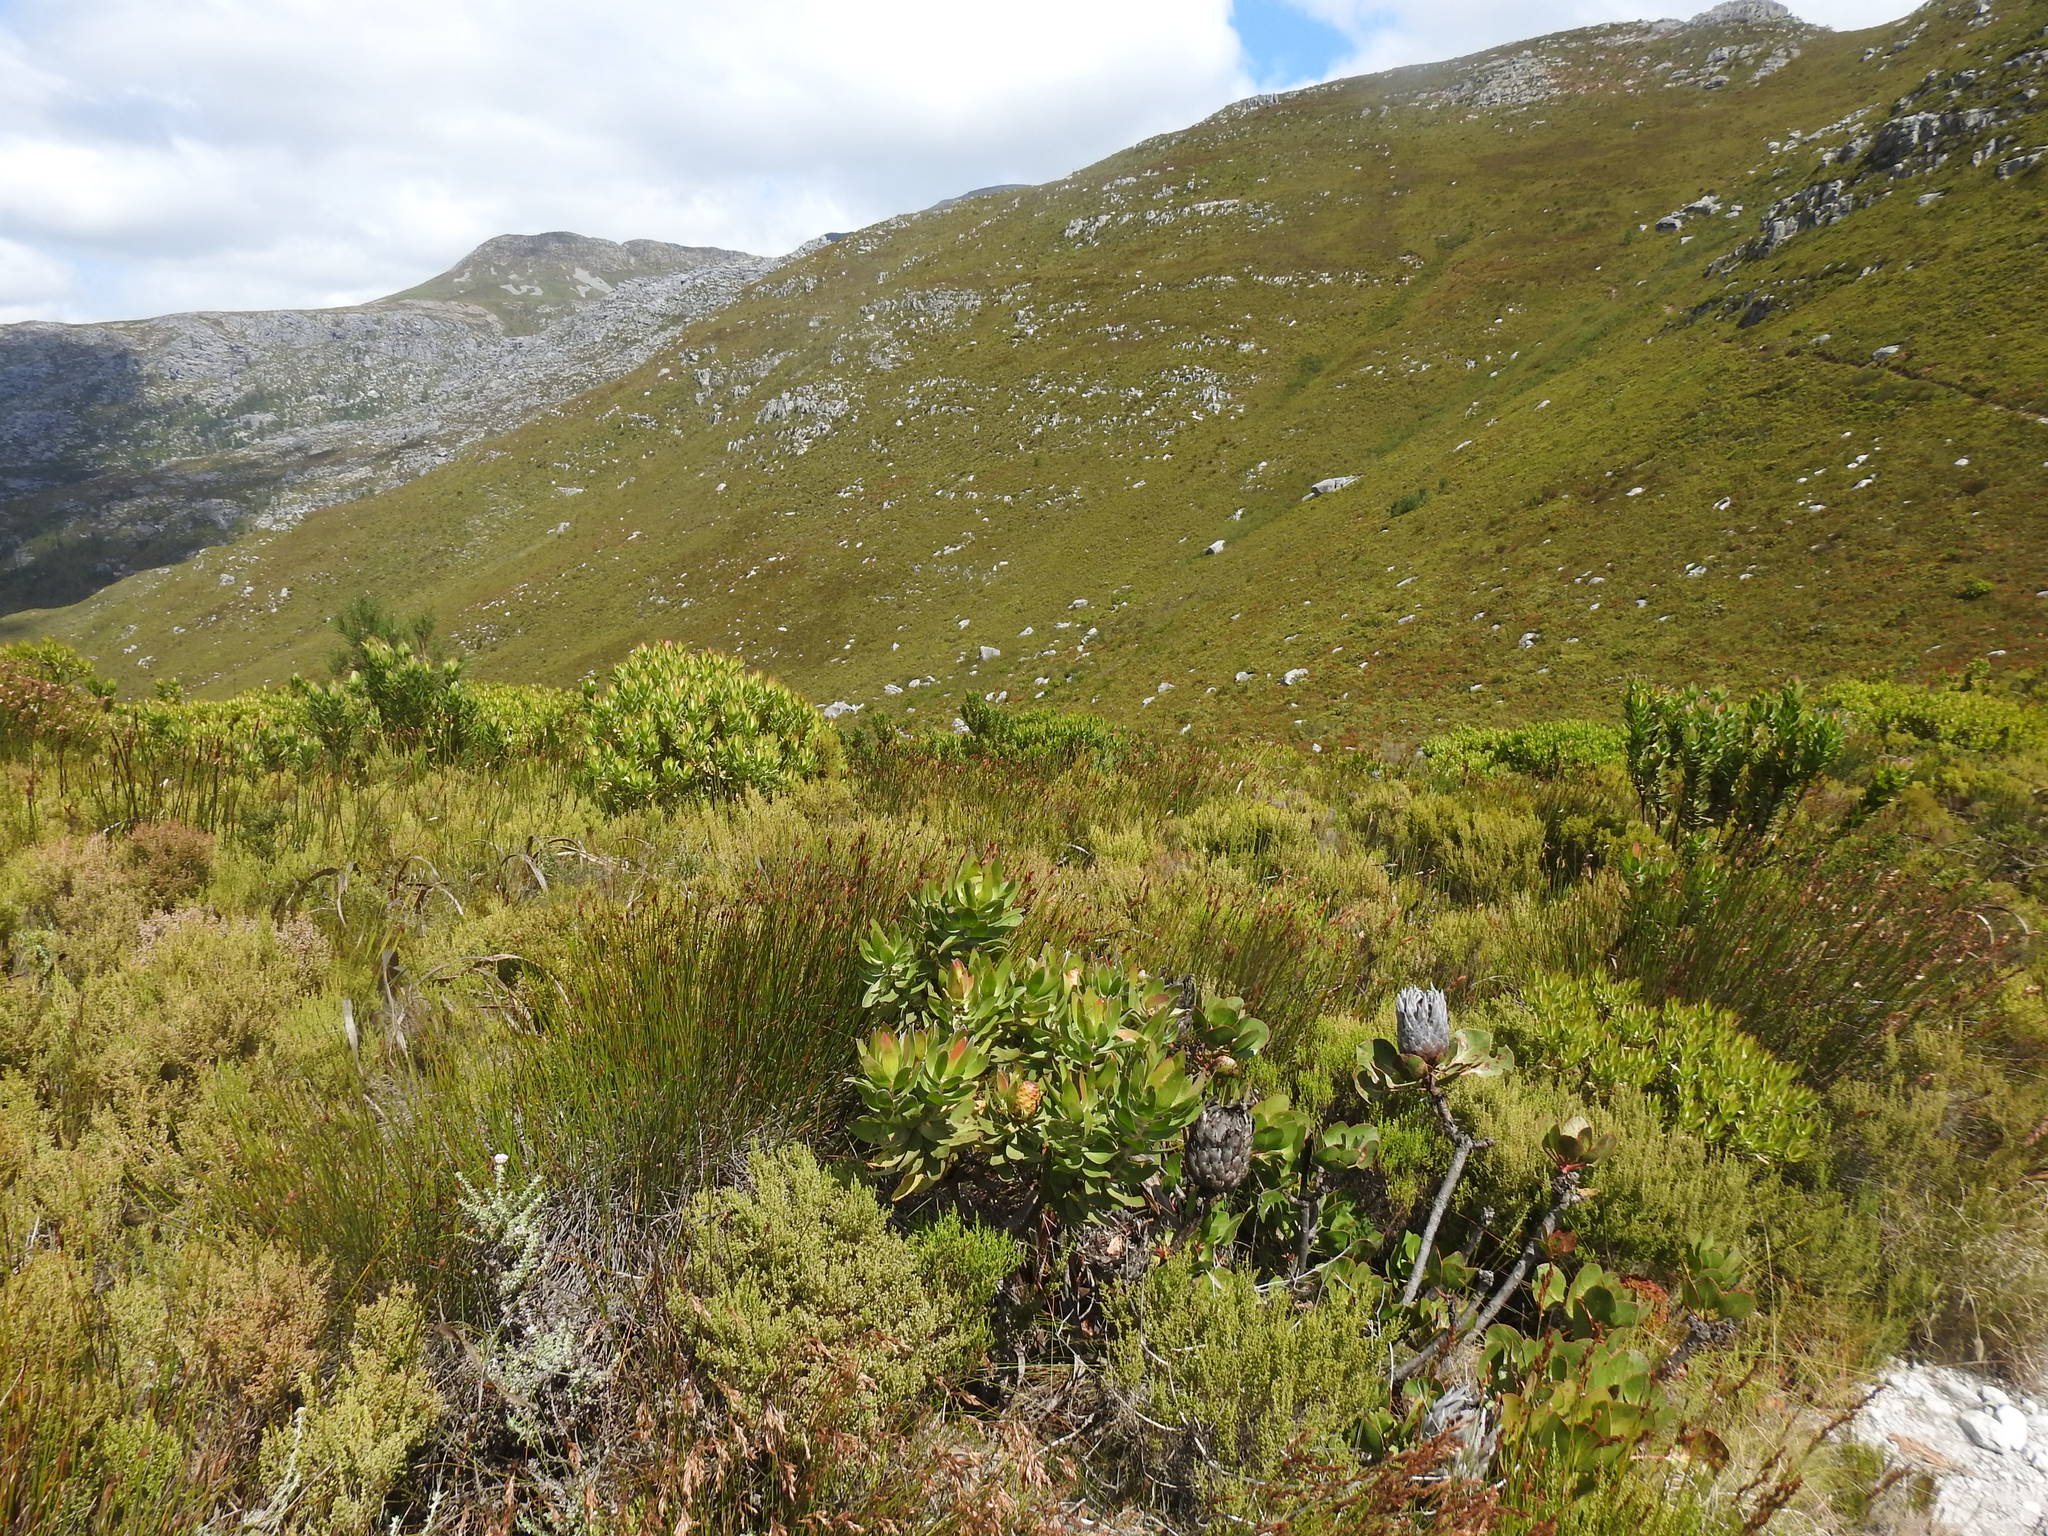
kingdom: Plantae
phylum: Tracheophyta
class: Magnoliopsida
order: Proteales
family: Proteaceae
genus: Leucadendron
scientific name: Leucadendron gandogeri
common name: Broad-leaf conebush
